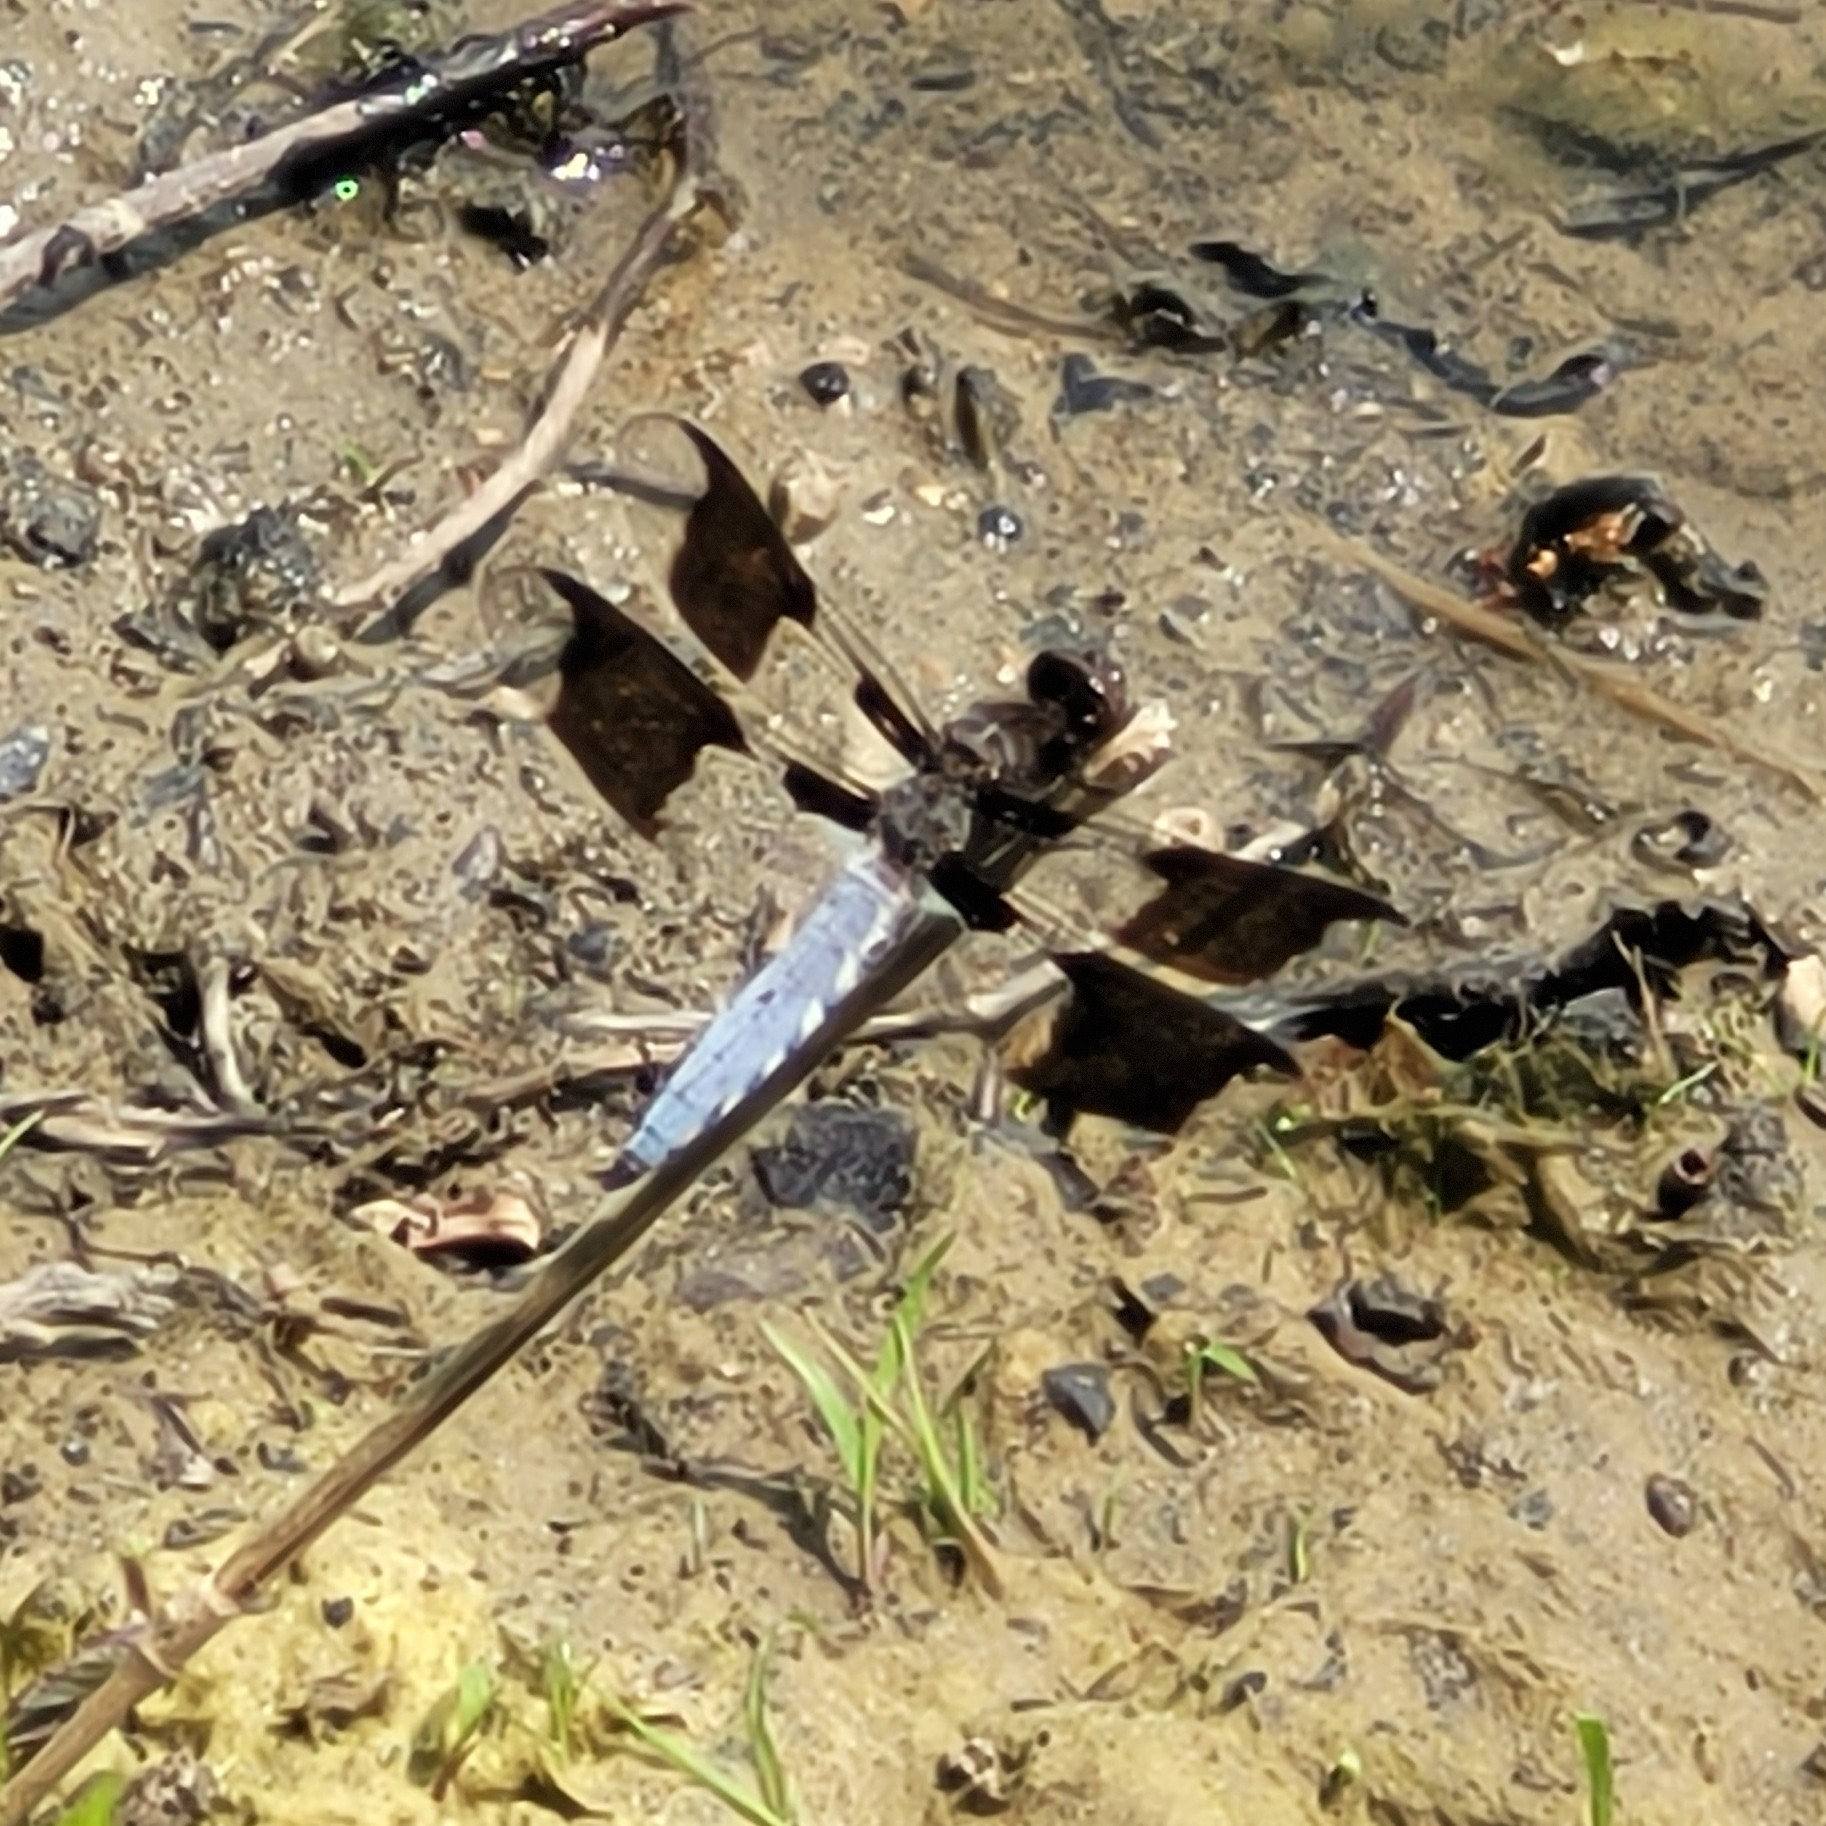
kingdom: Animalia
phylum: Arthropoda
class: Insecta
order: Odonata
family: Libellulidae
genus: Plathemis
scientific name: Plathemis lydia
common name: Common whitetail
